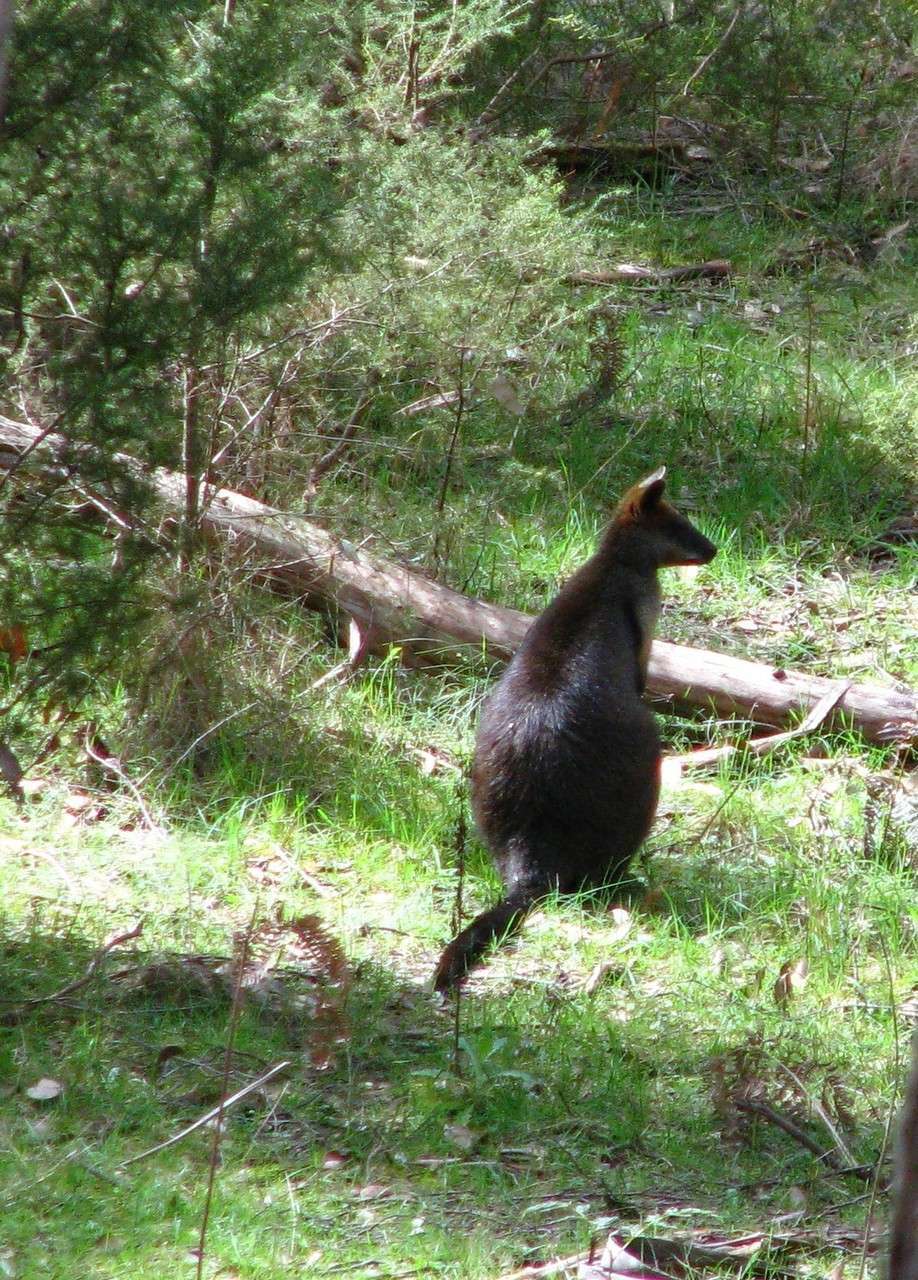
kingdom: Animalia
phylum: Chordata
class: Mammalia
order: Diprotodontia
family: Macropodidae
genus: Wallabia
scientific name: Wallabia bicolor
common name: Swamp wallaby
